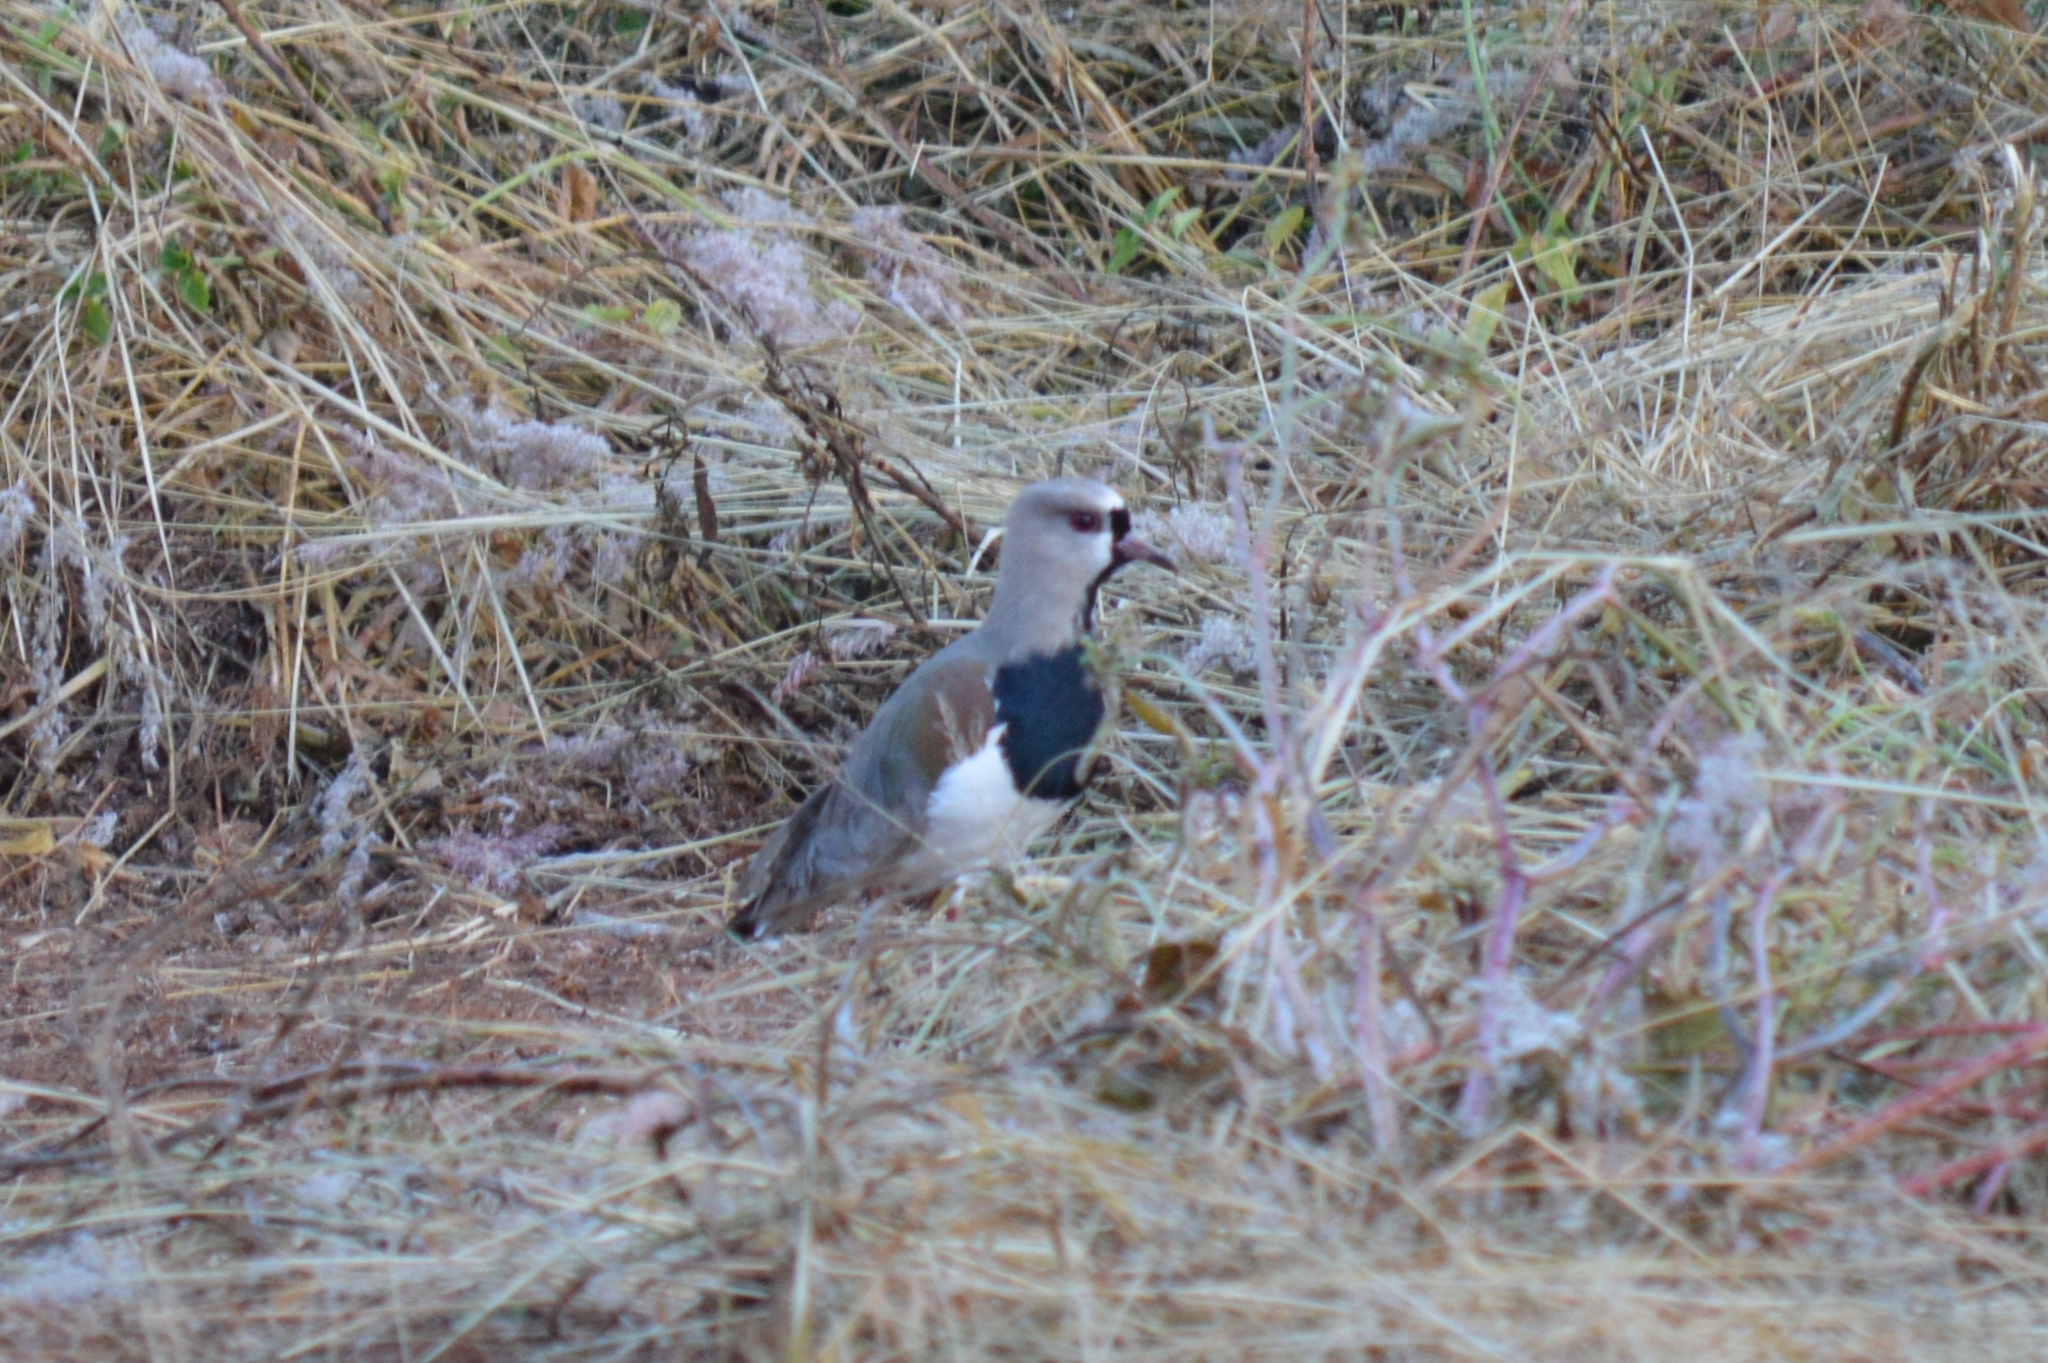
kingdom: Animalia
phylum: Chordata
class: Aves
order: Charadriiformes
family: Charadriidae
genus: Vanellus
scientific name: Vanellus chilensis
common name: Southern lapwing
